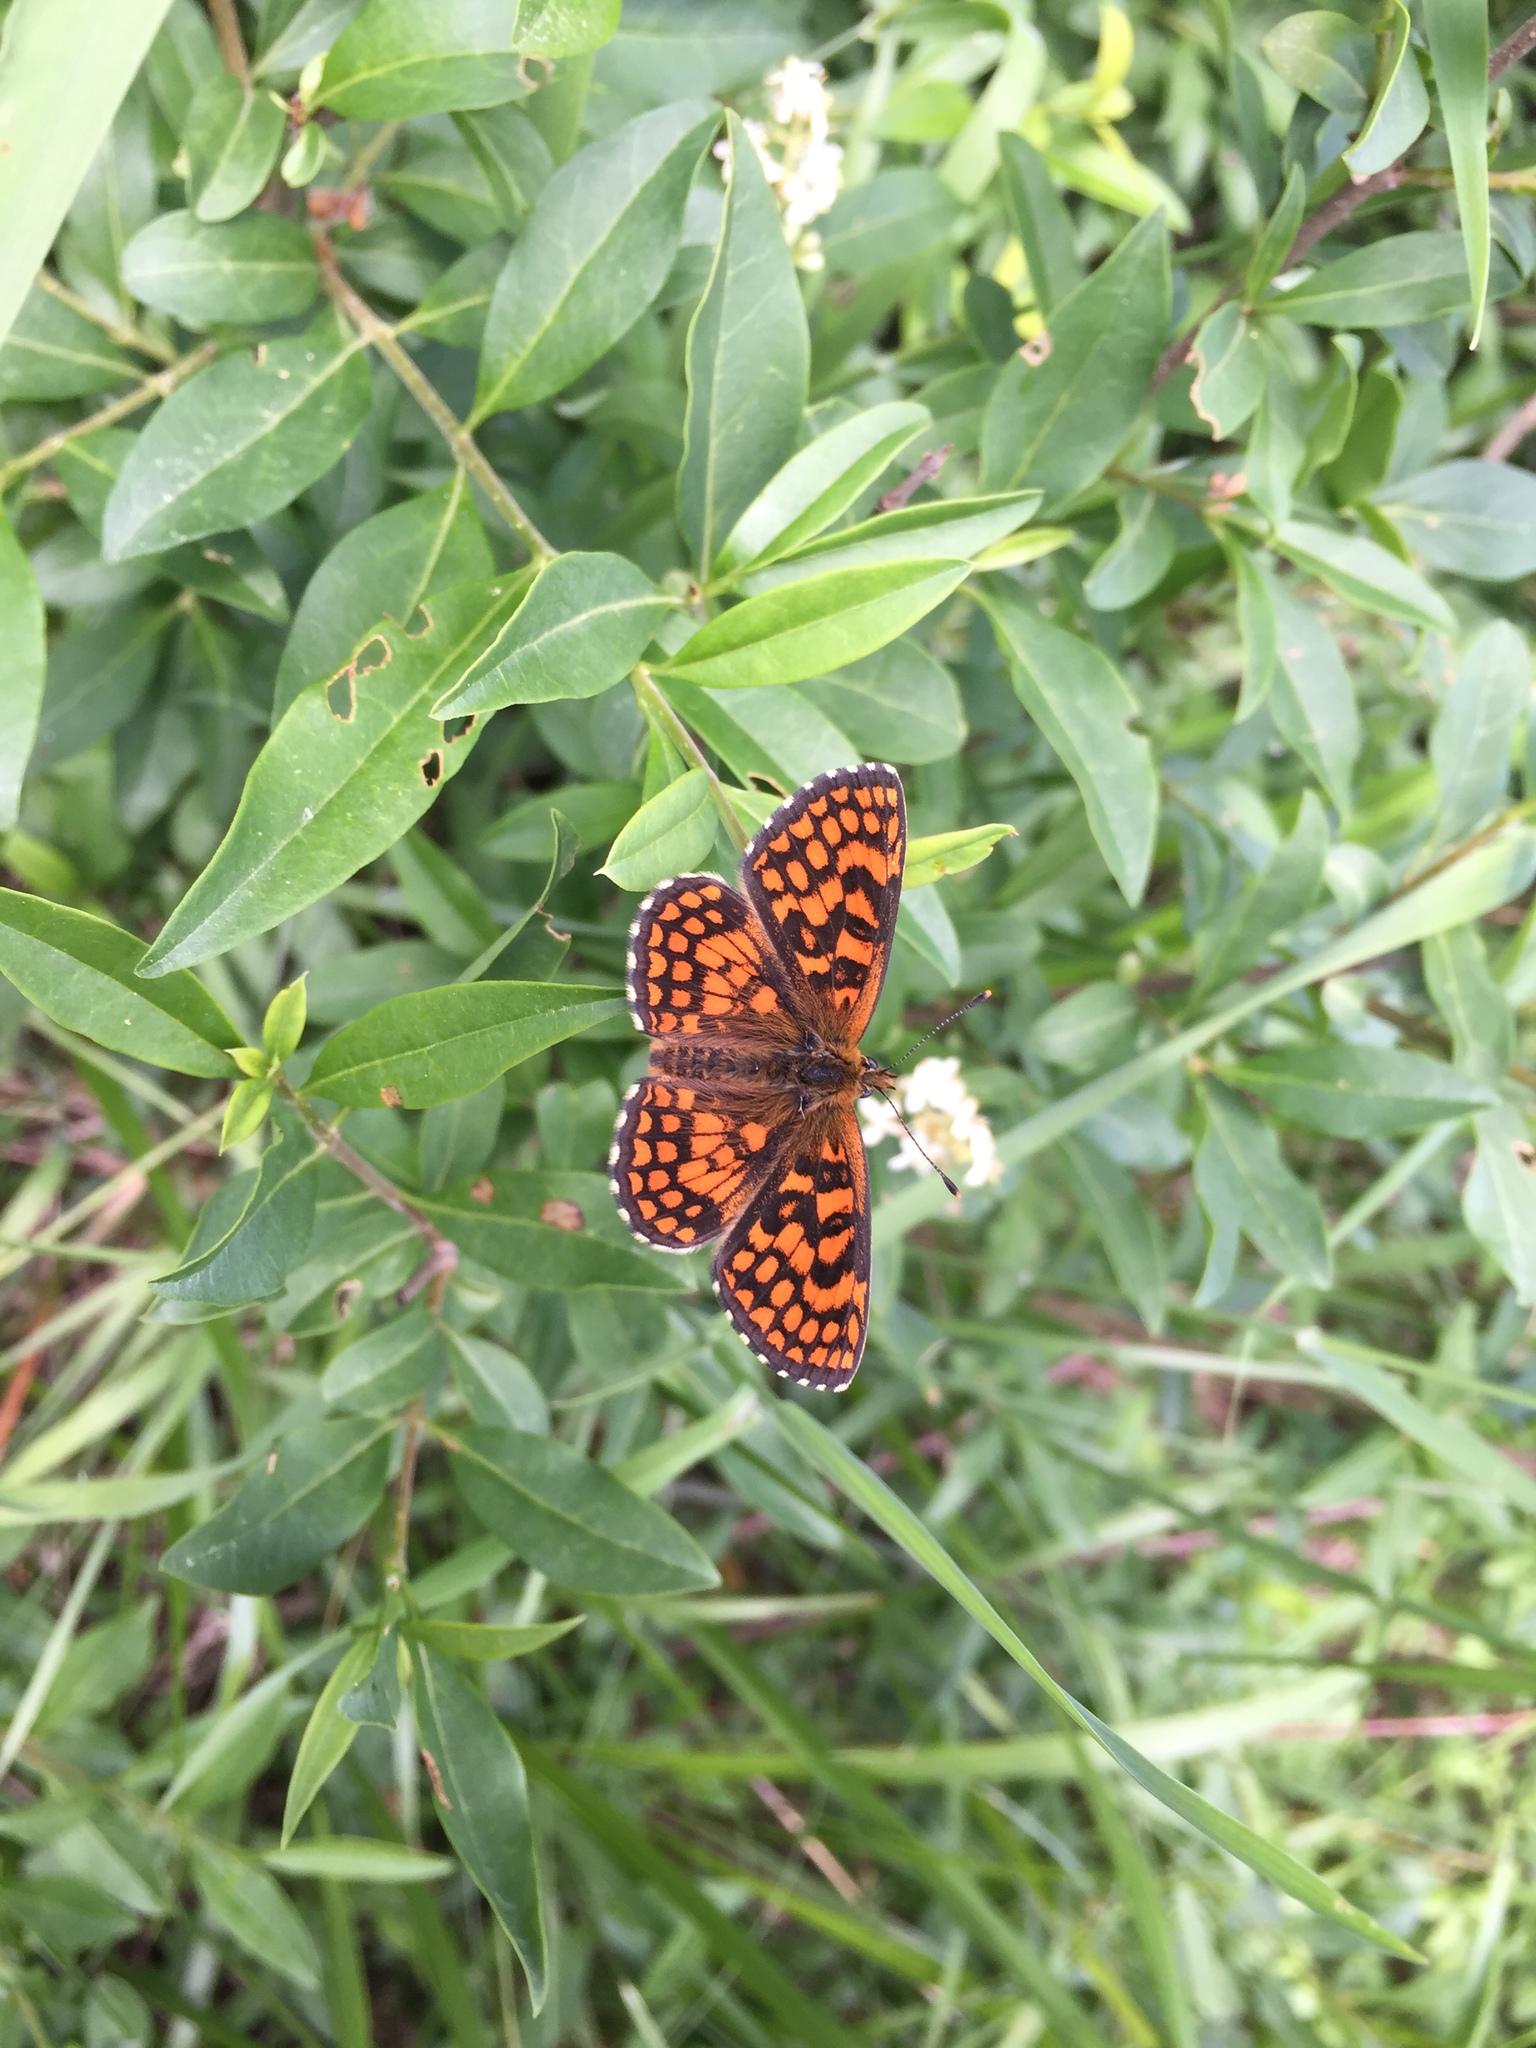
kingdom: Animalia
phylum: Arthropoda
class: Insecta
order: Lepidoptera
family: Nymphalidae
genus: Mellicta
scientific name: Mellicta athalia
